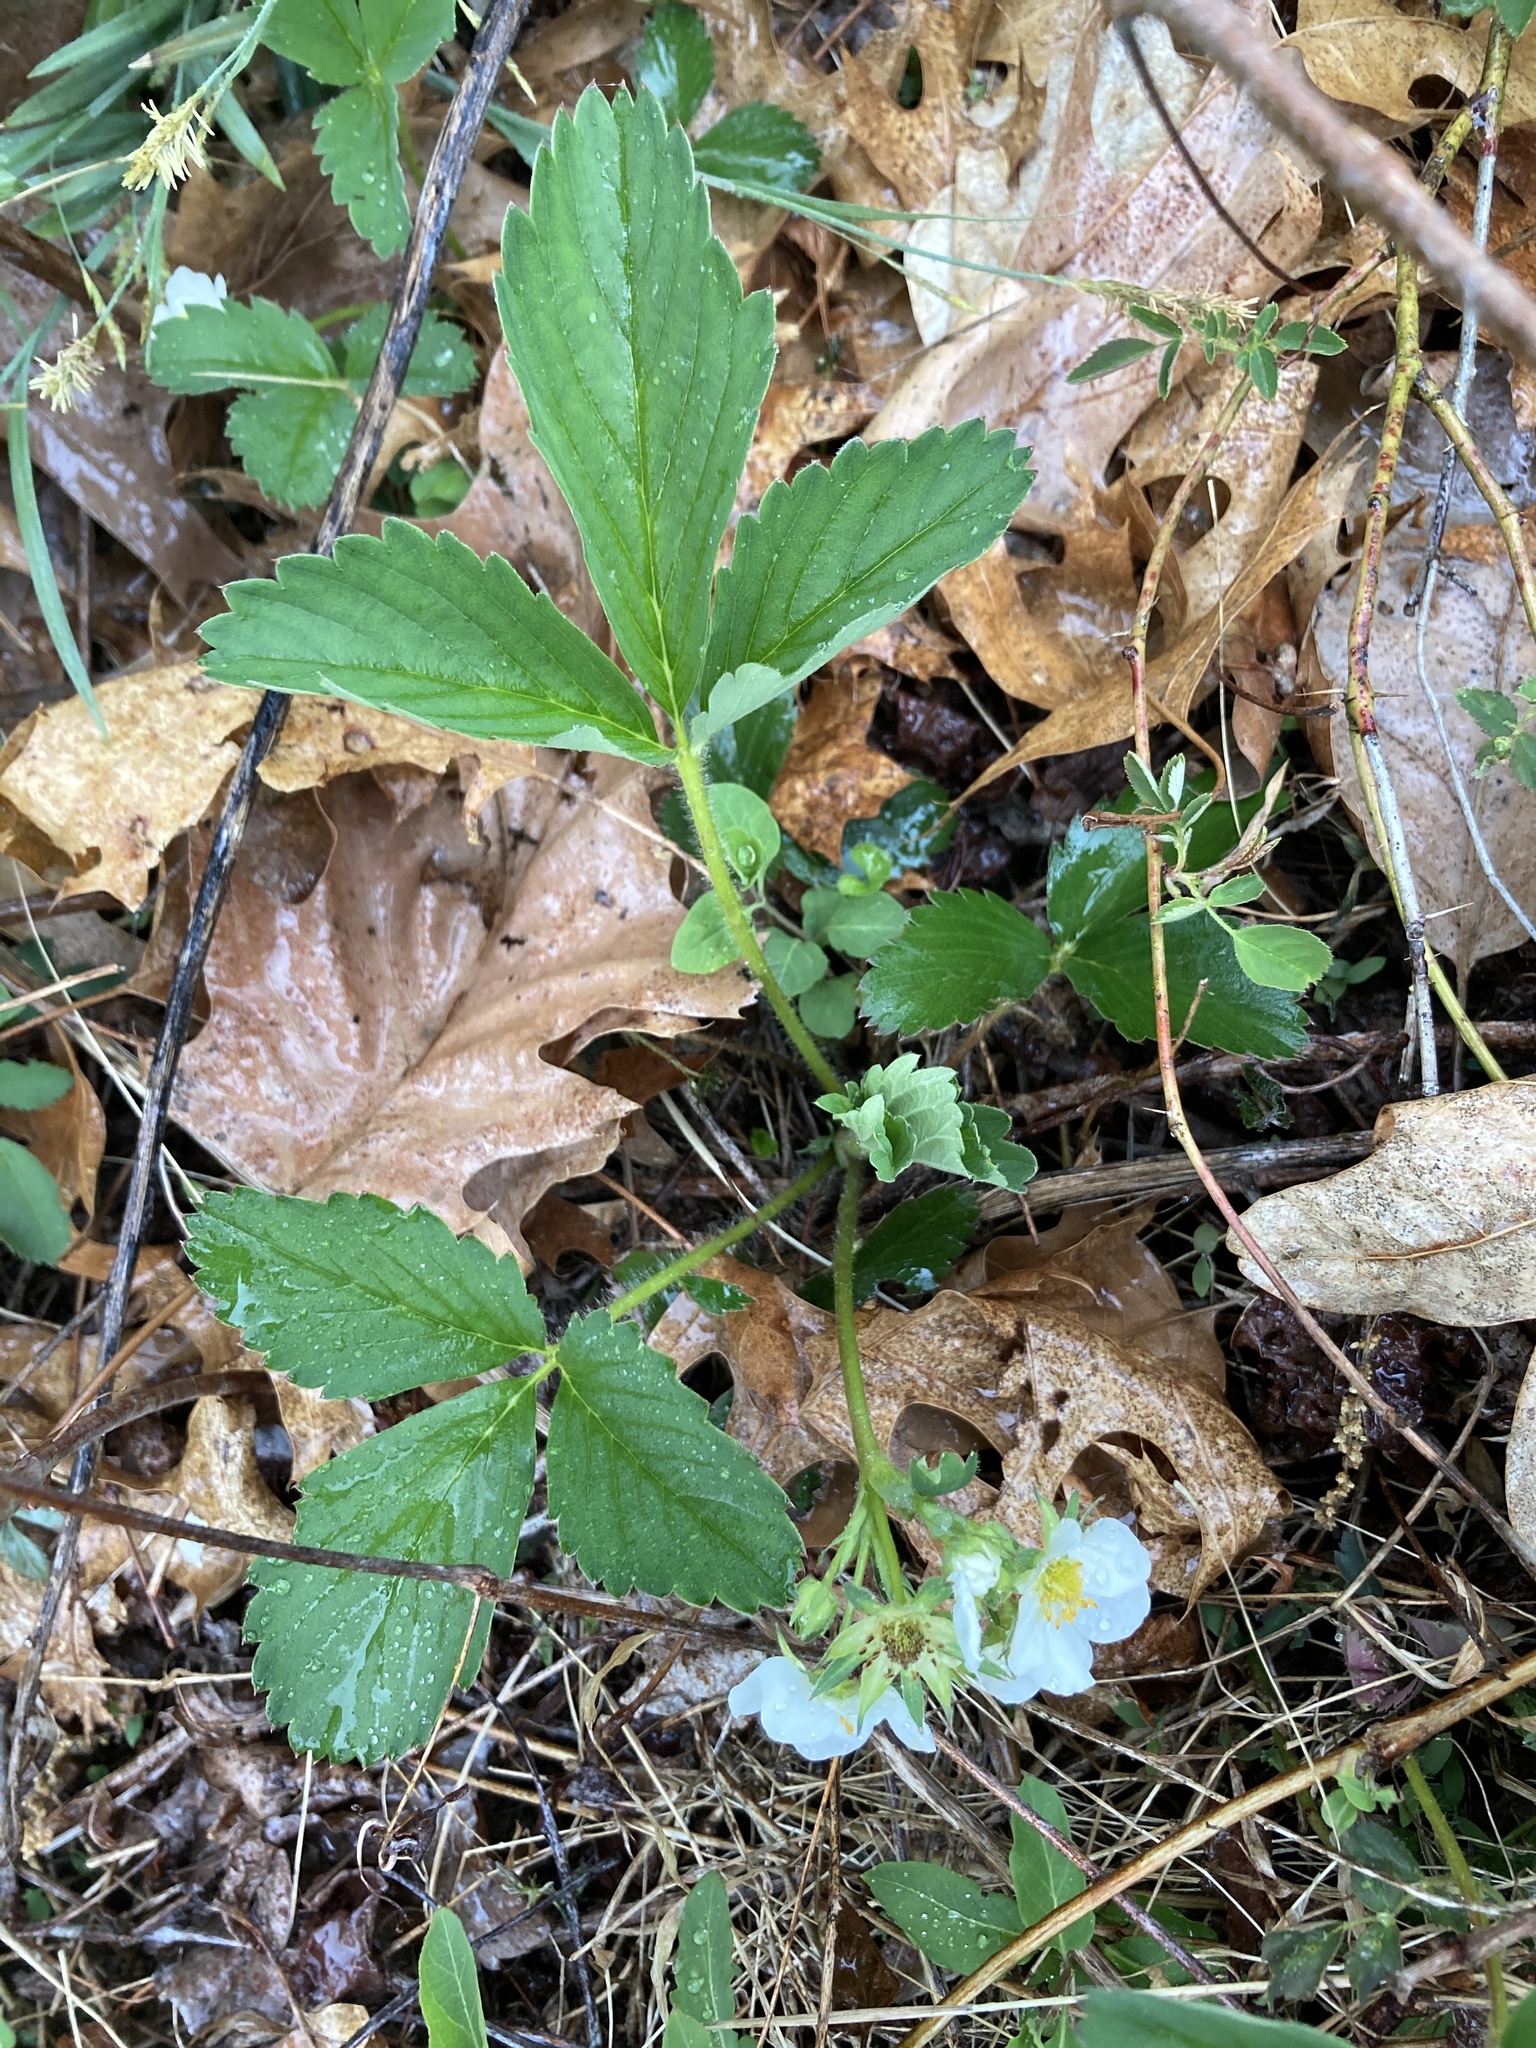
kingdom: Plantae
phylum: Tracheophyta
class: Magnoliopsida
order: Rosales
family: Rosaceae
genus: Fragaria
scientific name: Fragaria virginiana
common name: Thickleaved wild strawberry
